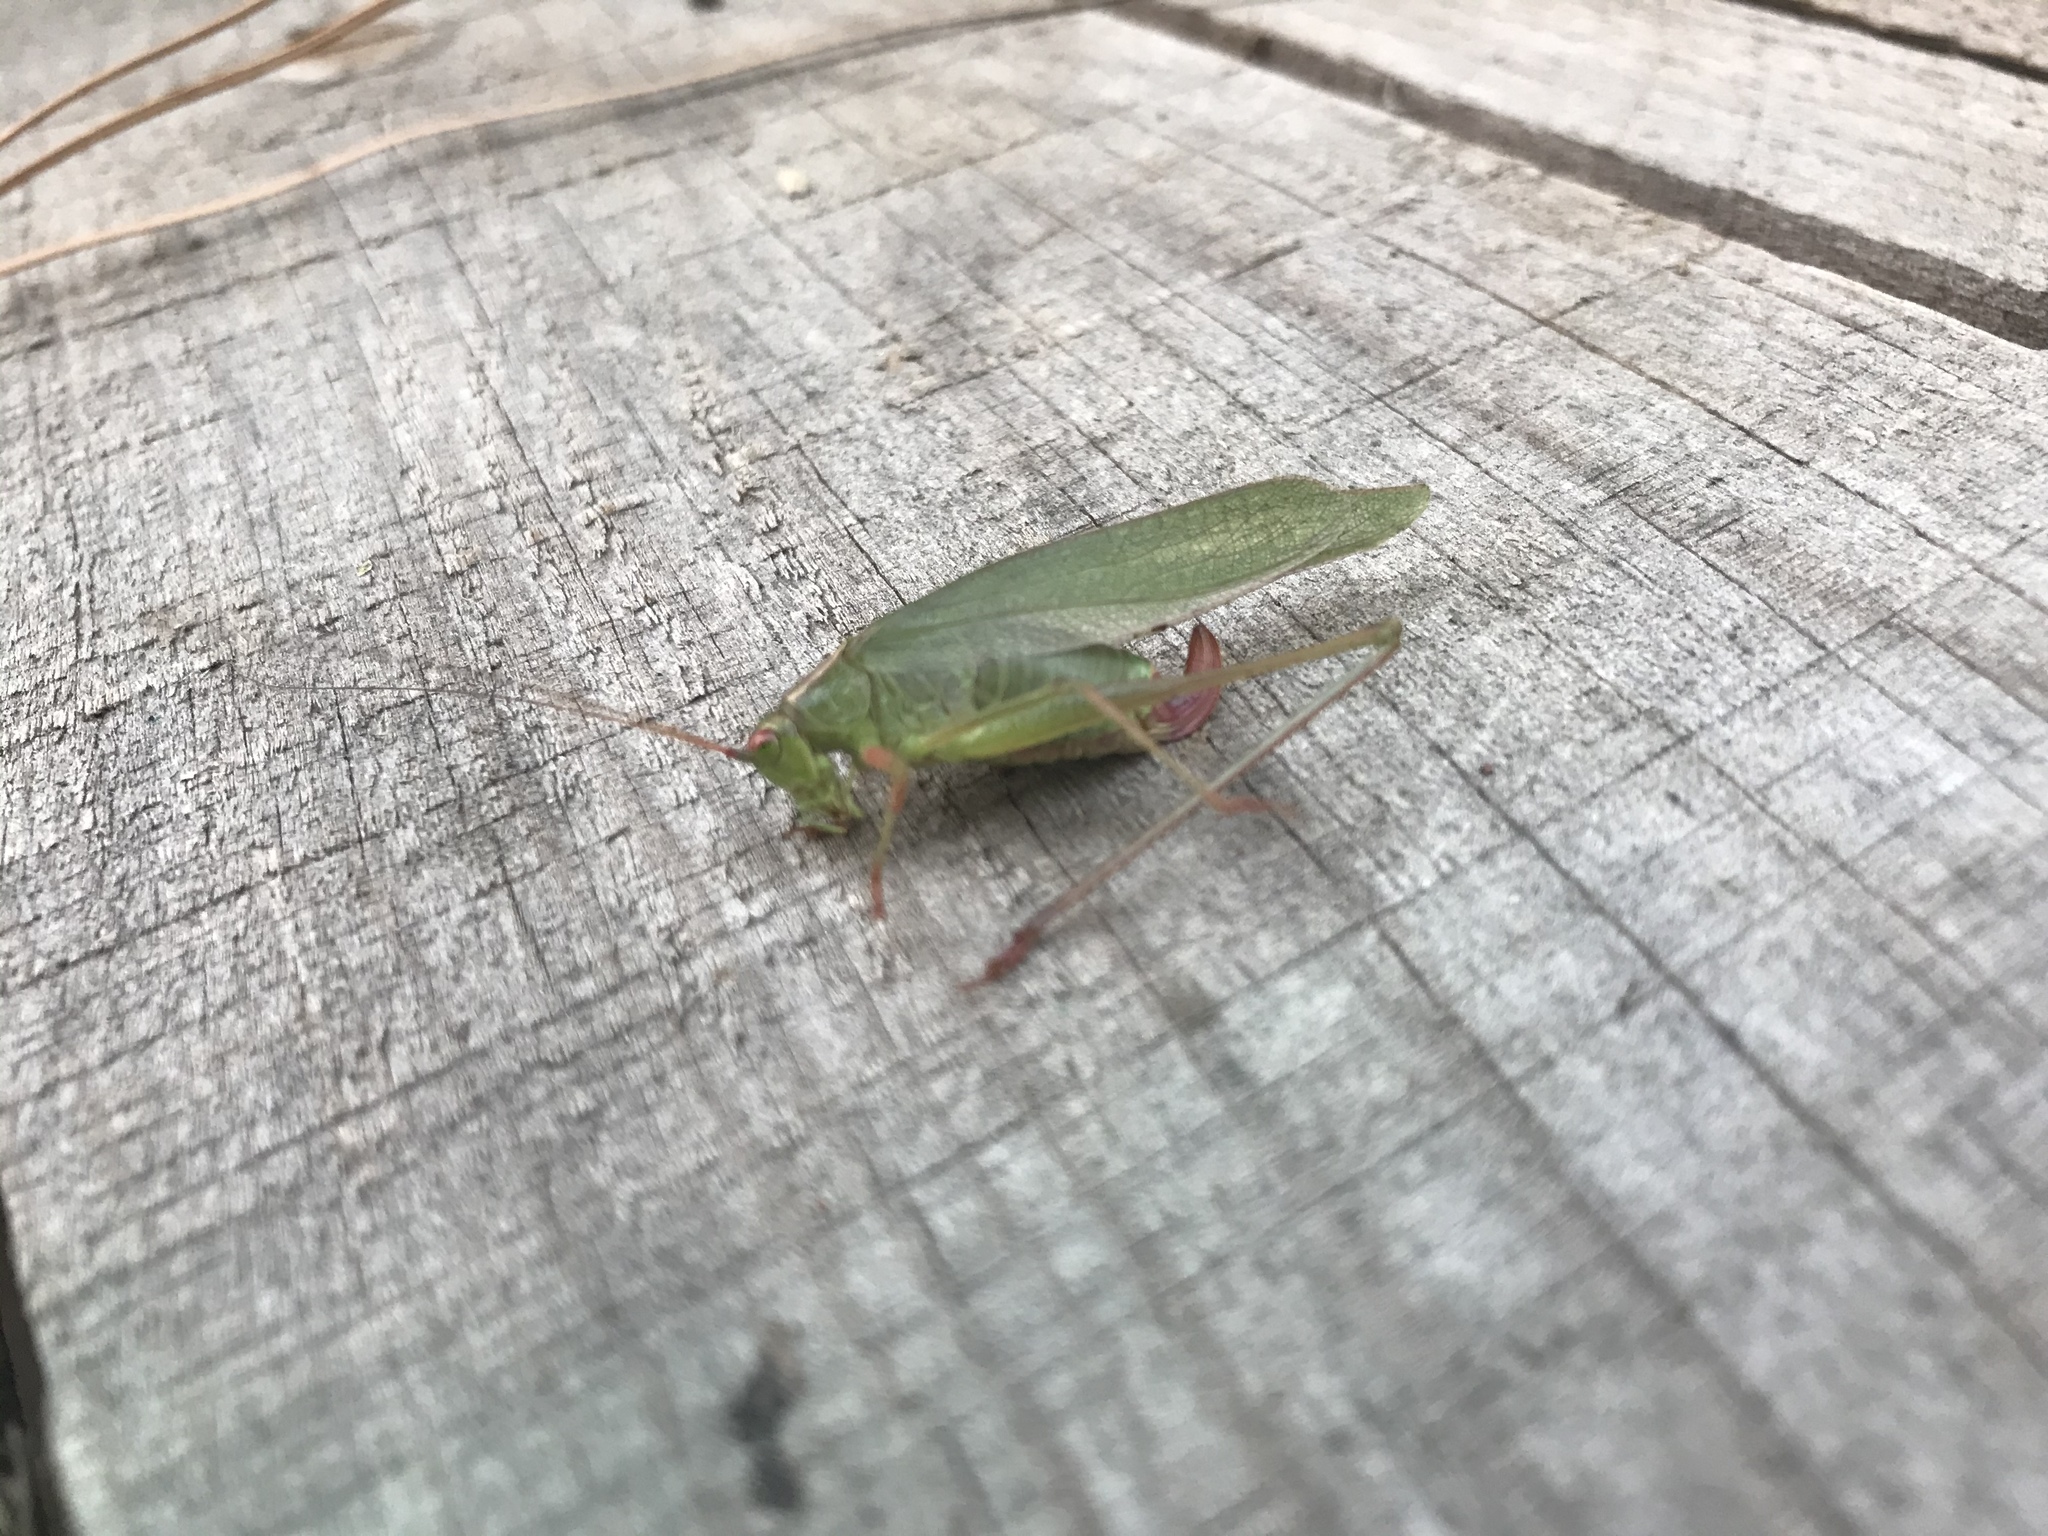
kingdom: Animalia
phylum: Arthropoda
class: Insecta
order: Orthoptera
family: Tettigoniidae
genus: Scudderia
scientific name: Scudderia furcata
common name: Fork-tailed bush katydid
